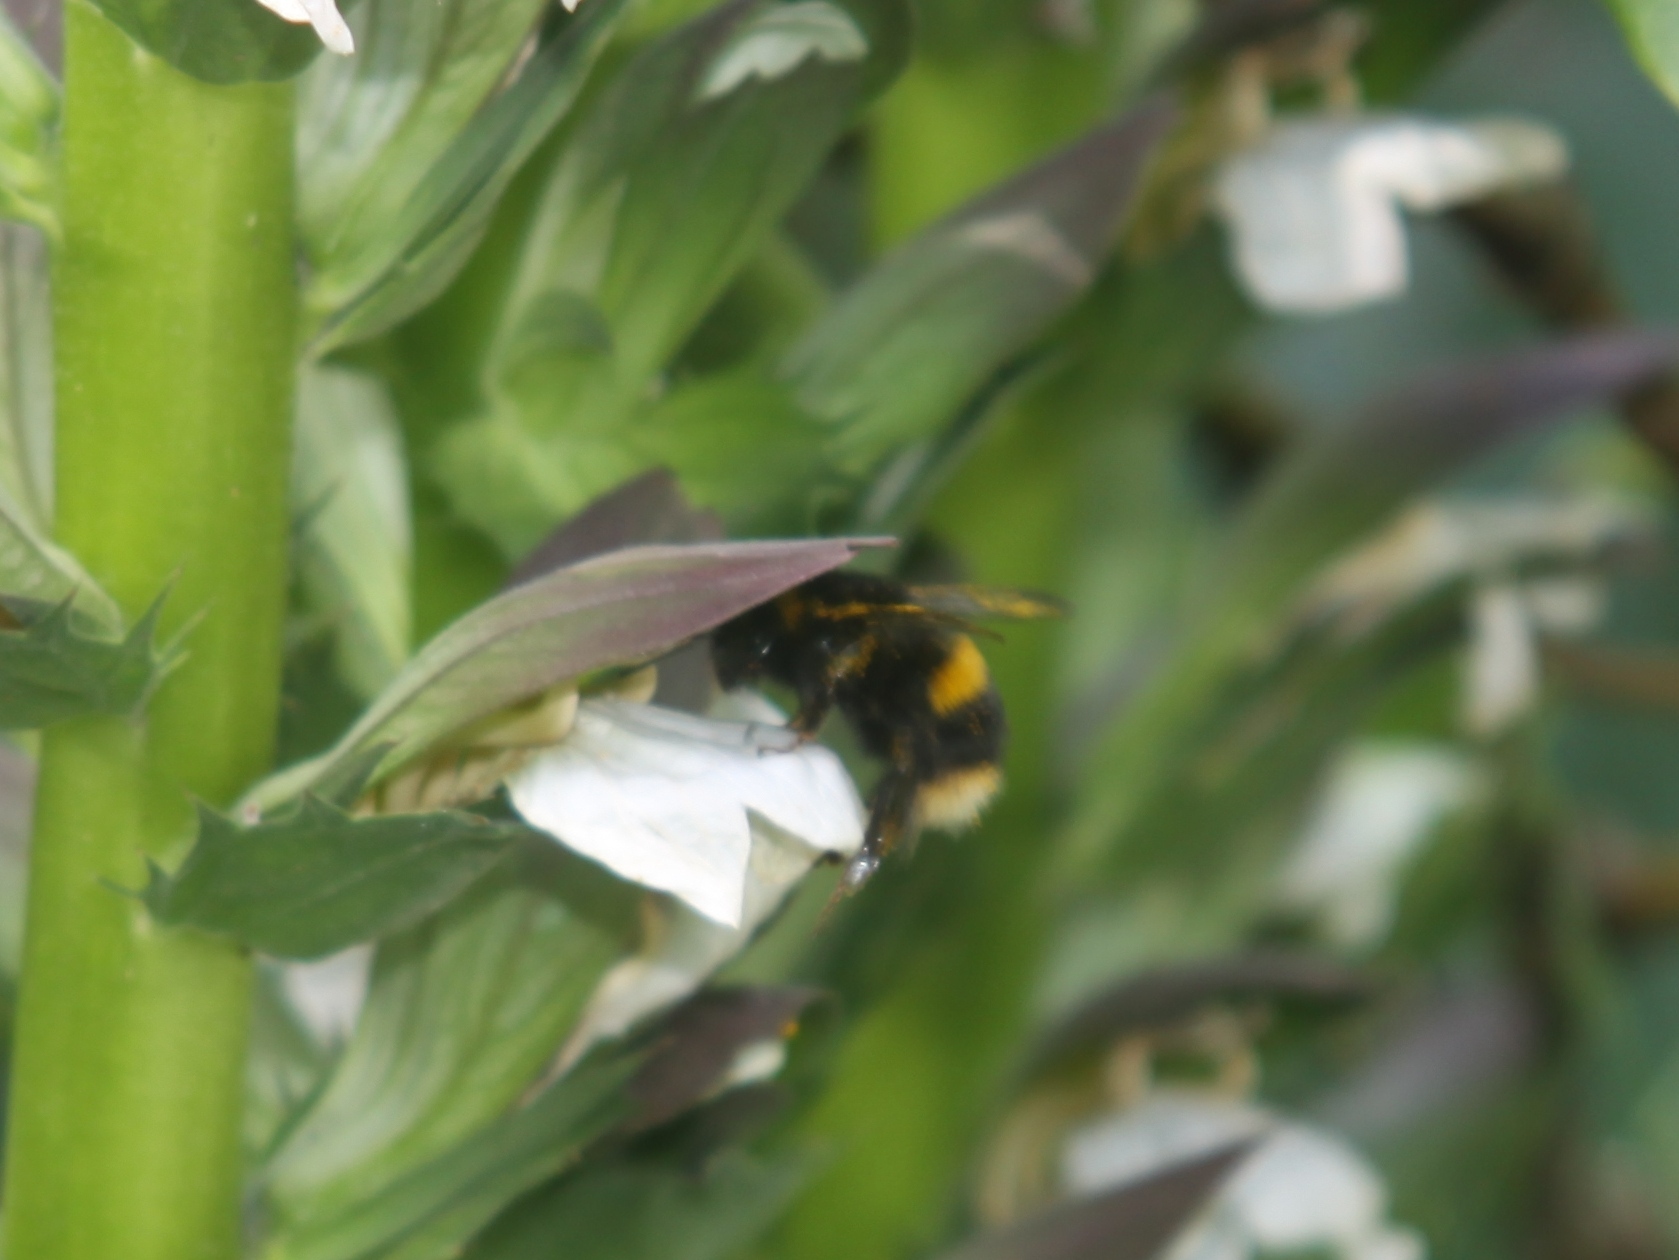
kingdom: Animalia
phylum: Arthropoda
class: Insecta
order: Hymenoptera
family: Apidae
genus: Bombus
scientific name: Bombus terrestris
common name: Buff-tailed bumblebee
